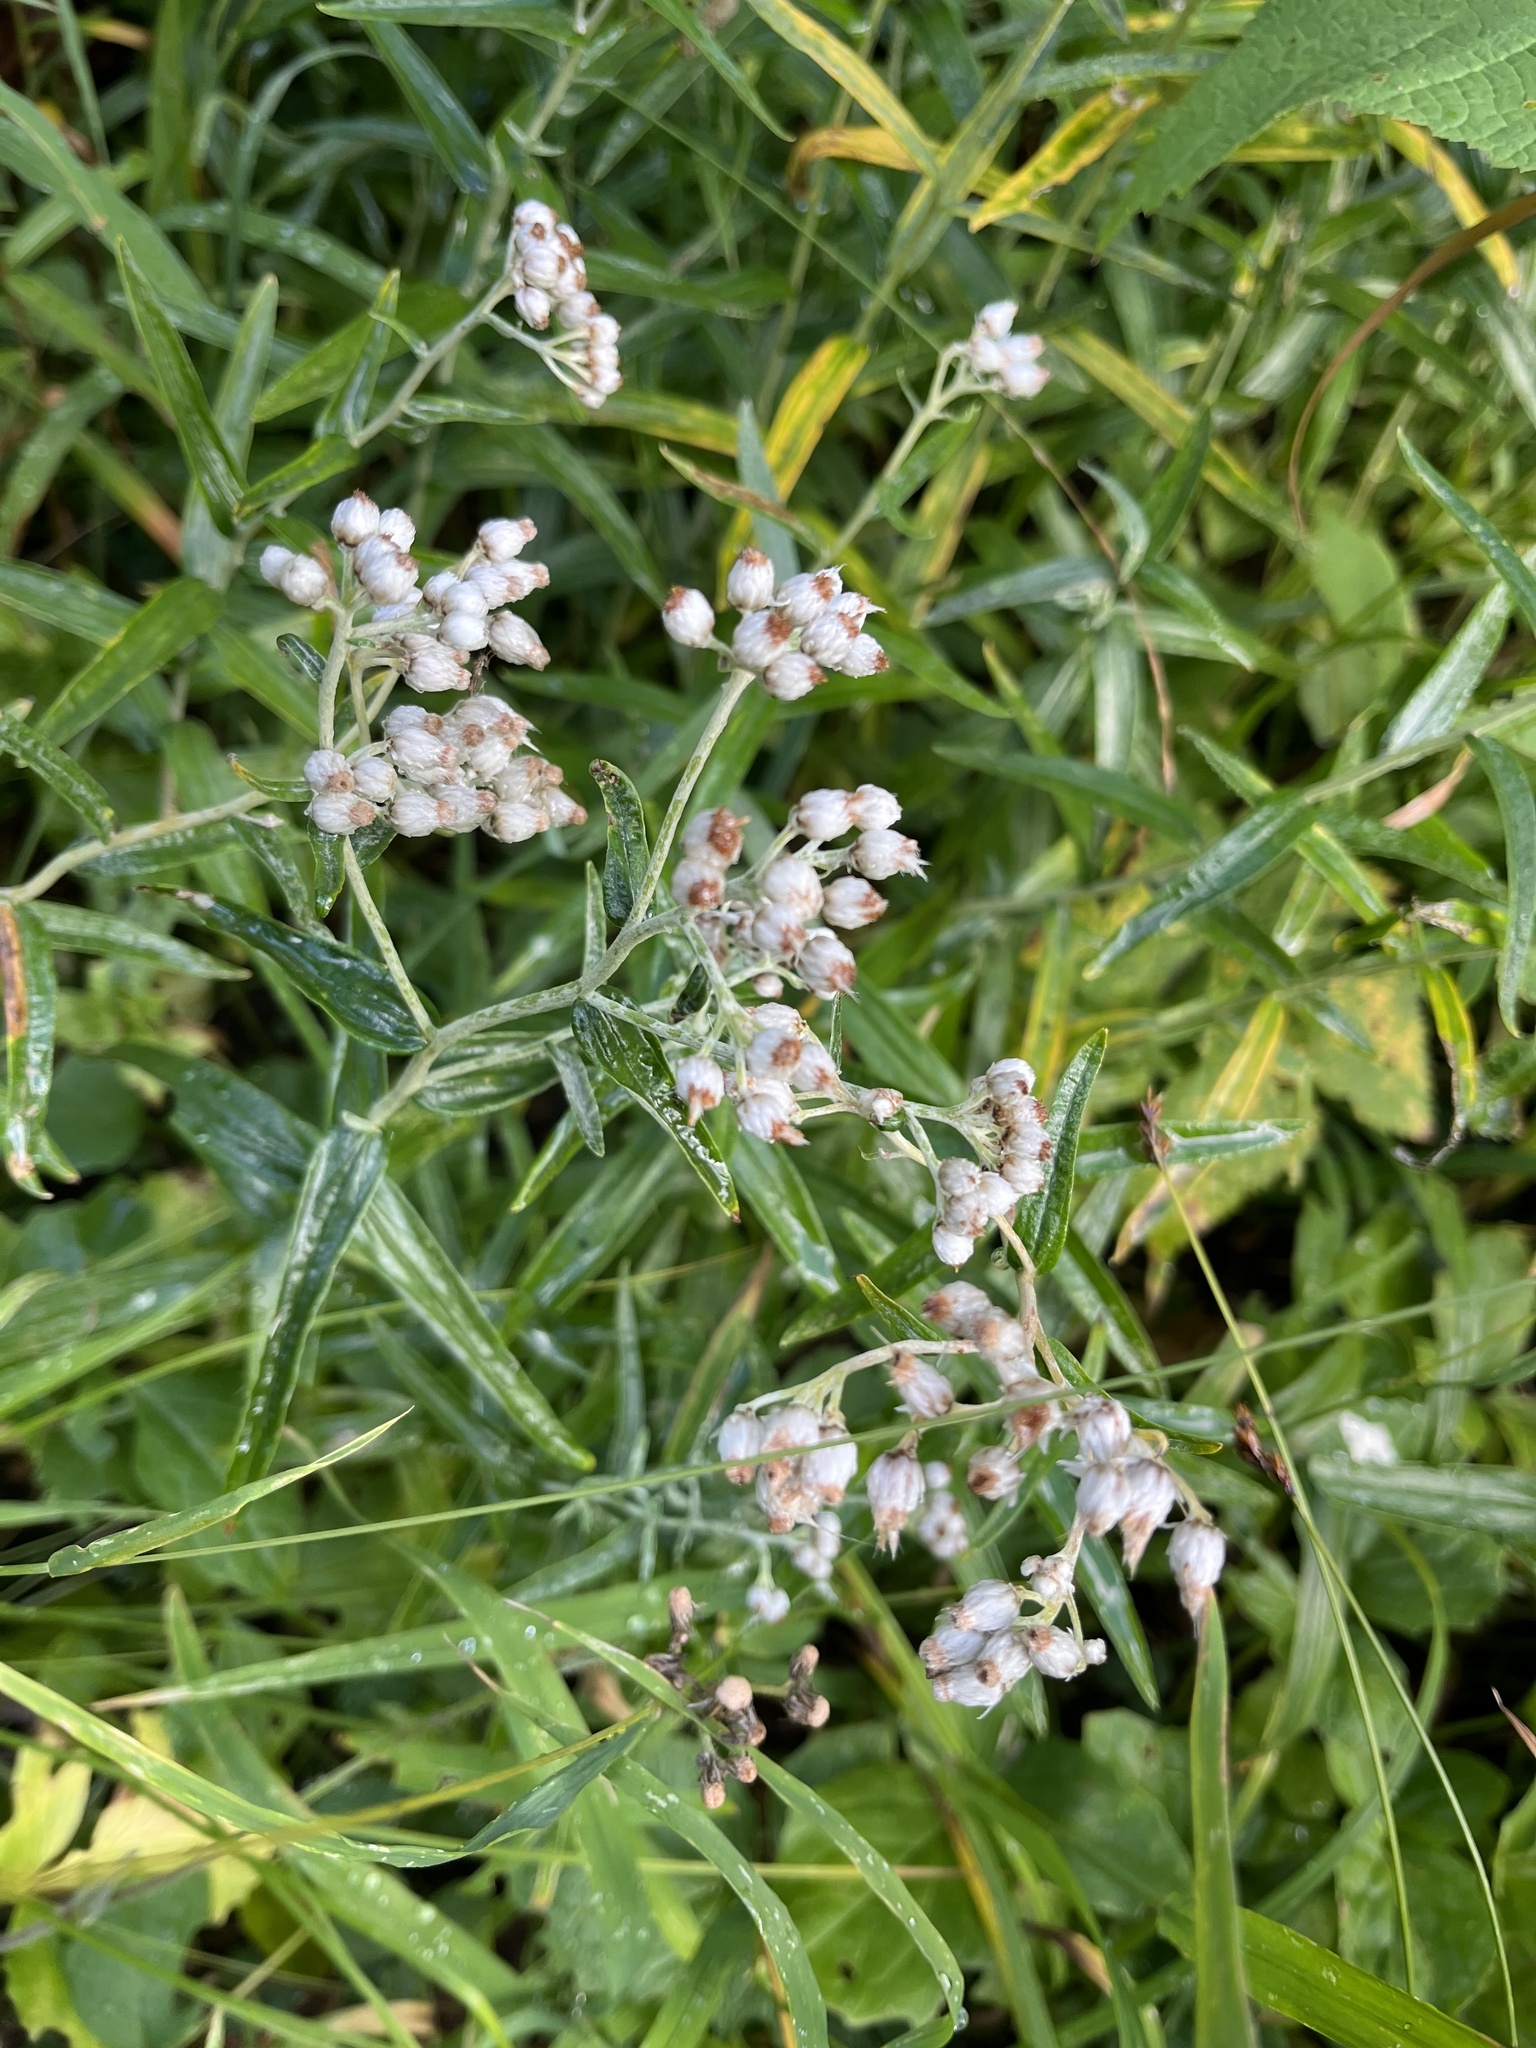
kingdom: Plantae
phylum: Tracheophyta
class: Magnoliopsida
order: Asterales
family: Asteraceae
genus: Anaphalis
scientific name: Anaphalis margaritacea
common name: Pearly everlasting
